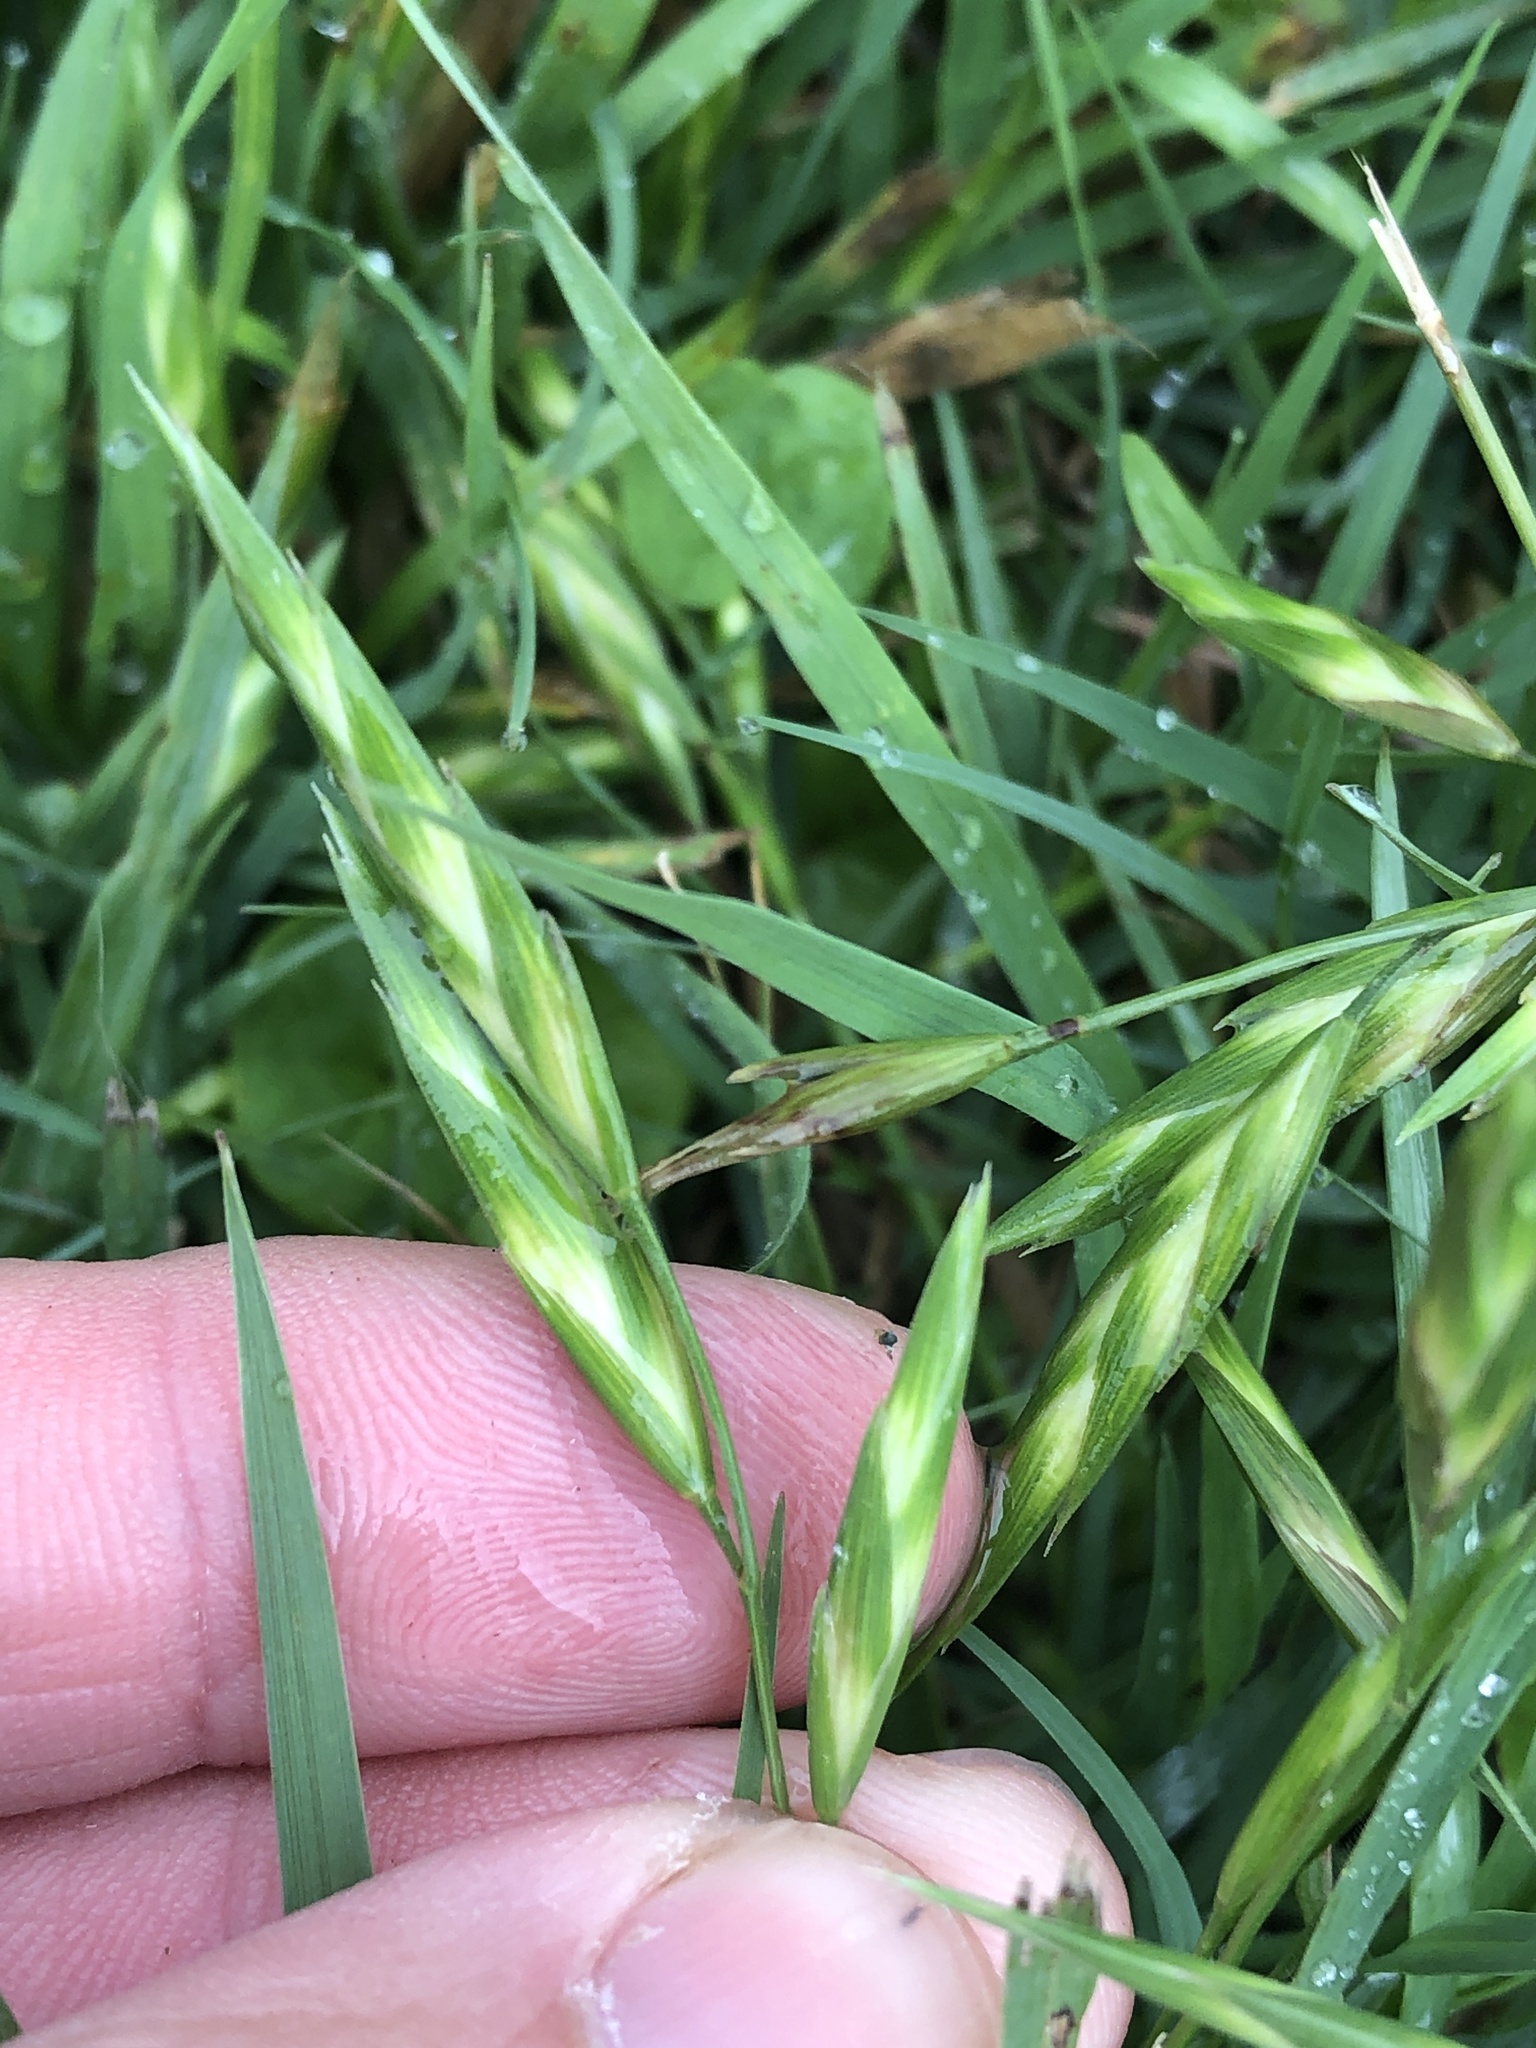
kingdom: Plantae
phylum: Tracheophyta
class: Liliopsida
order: Poales
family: Poaceae
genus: Bromus
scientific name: Bromus catharticus
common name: Rescuegrass
